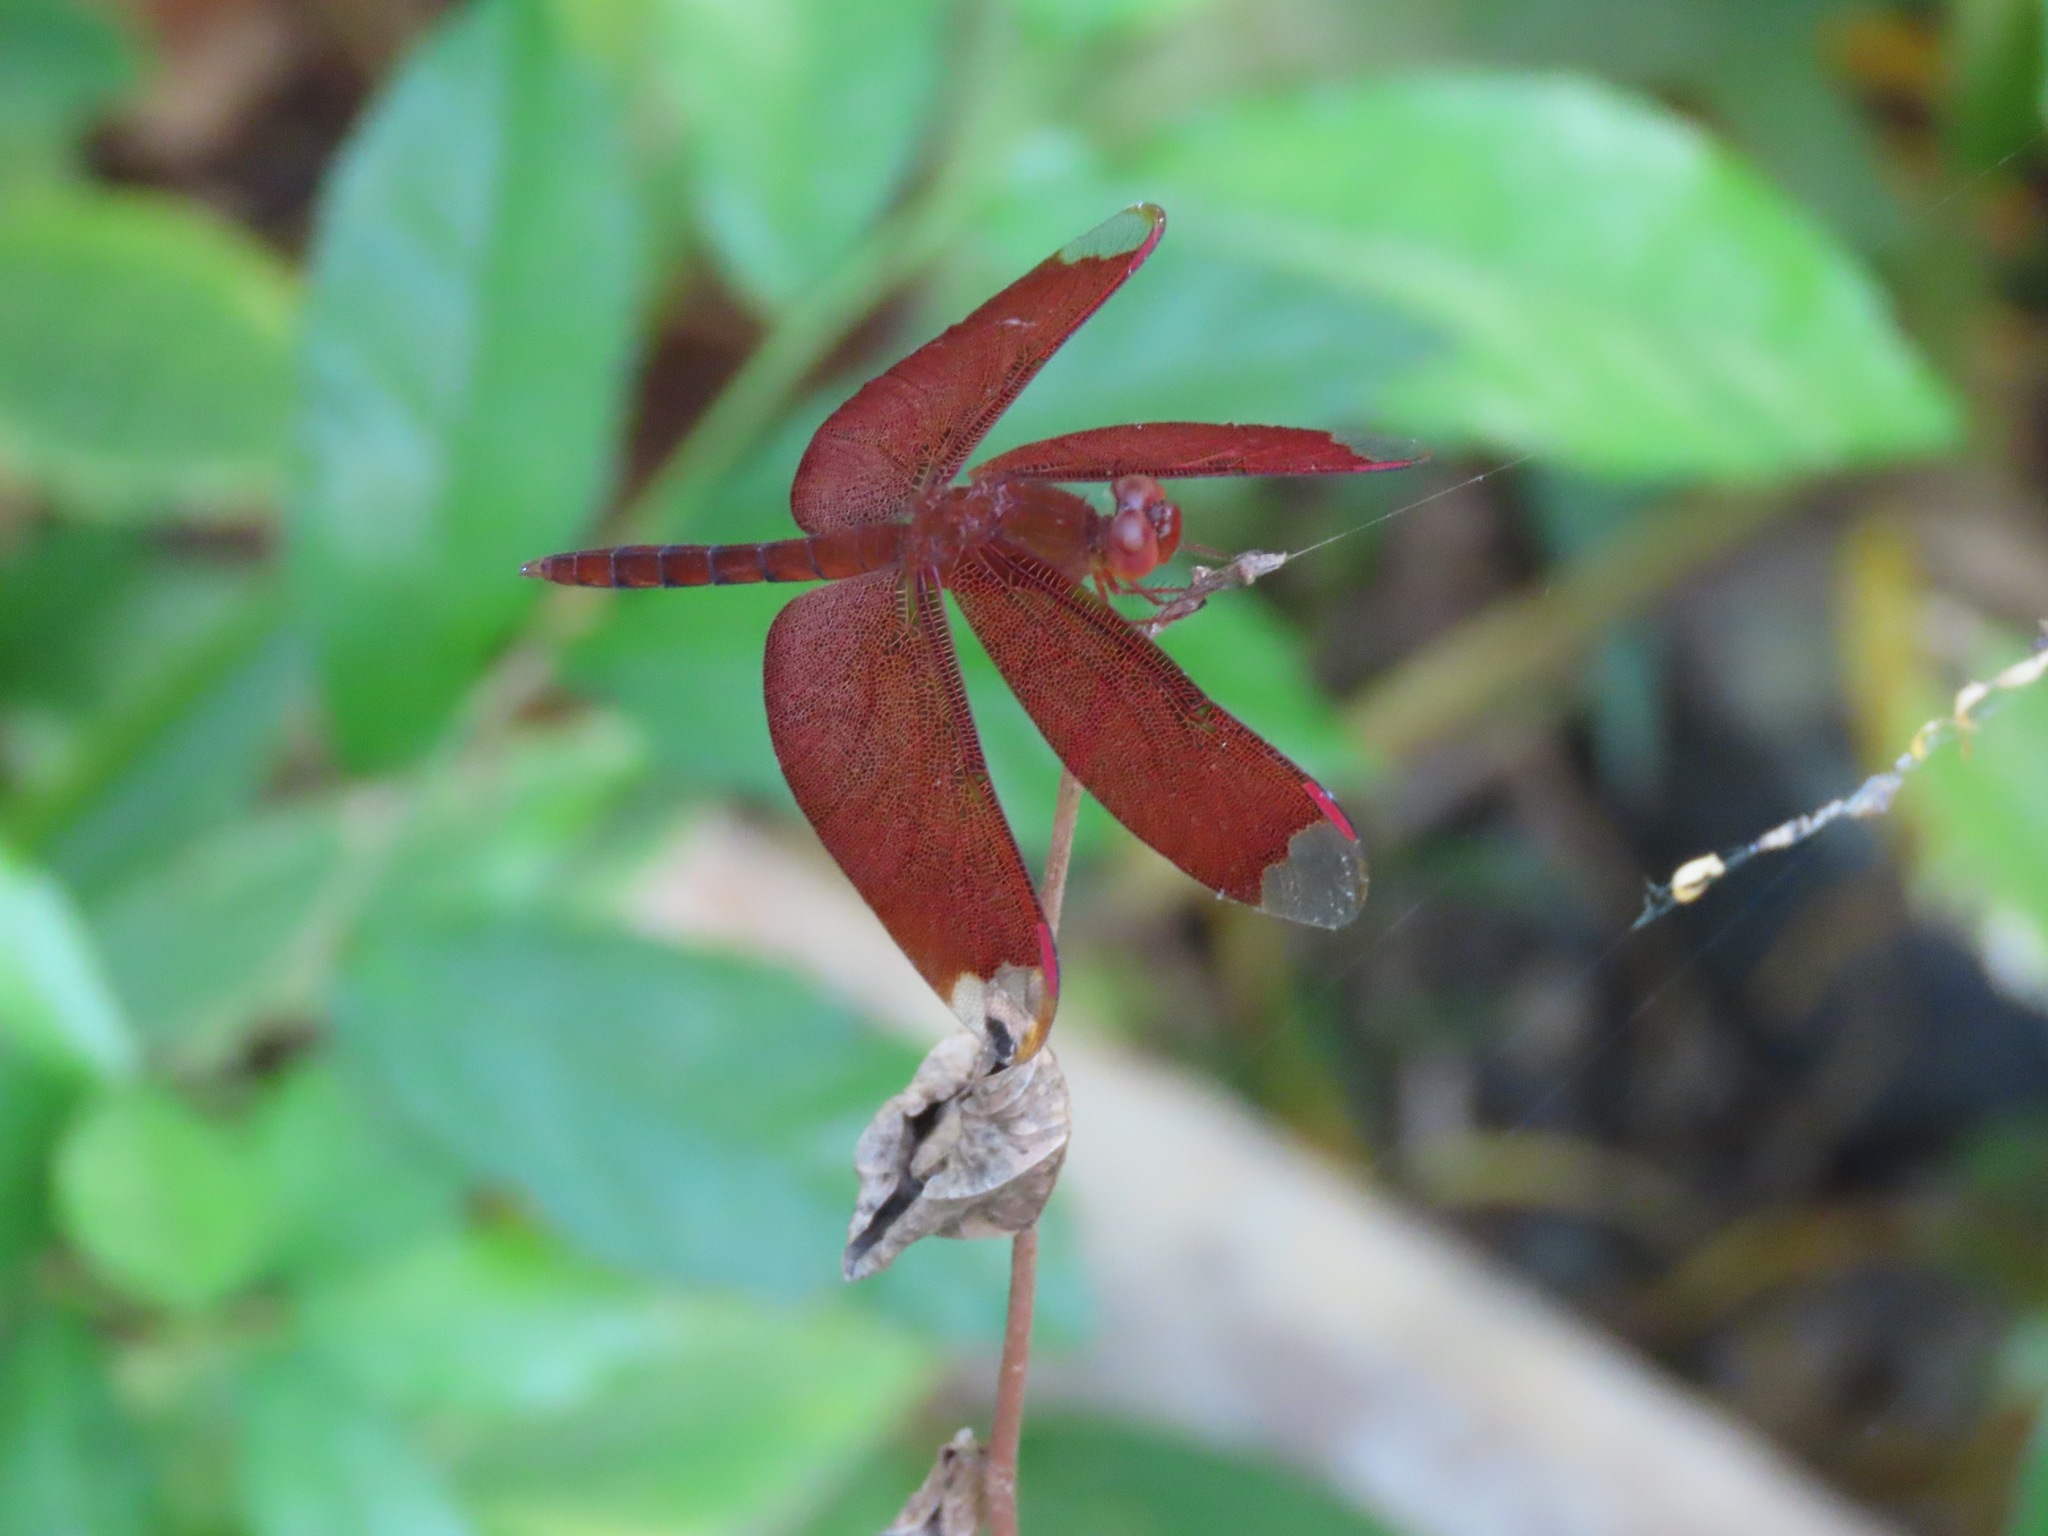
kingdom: Animalia
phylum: Arthropoda
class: Insecta
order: Odonata
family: Libellulidae
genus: Neurothemis
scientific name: Neurothemis fulvia
